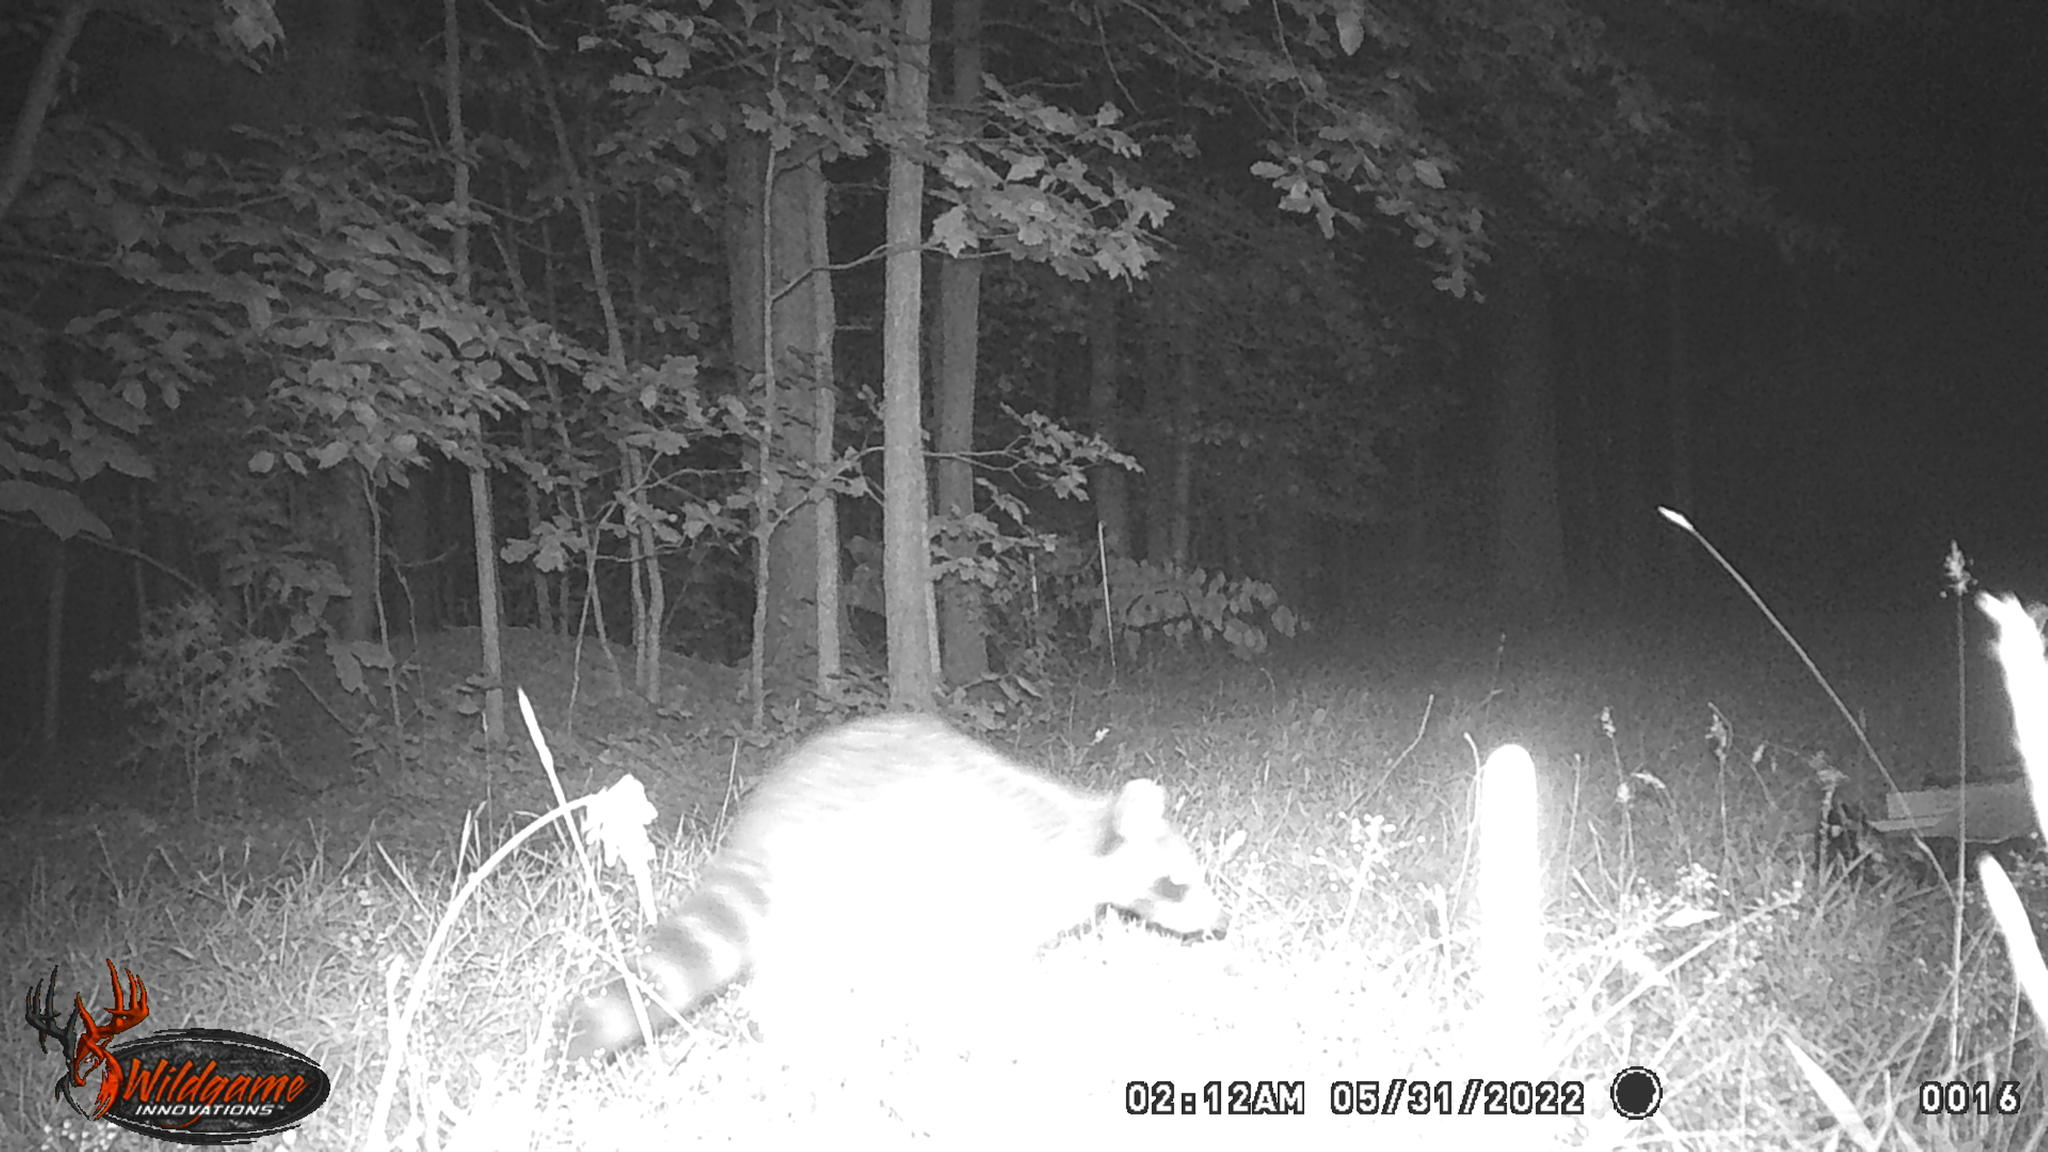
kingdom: Animalia
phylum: Chordata
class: Mammalia
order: Carnivora
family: Procyonidae
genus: Procyon
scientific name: Procyon lotor
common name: Raccoon
